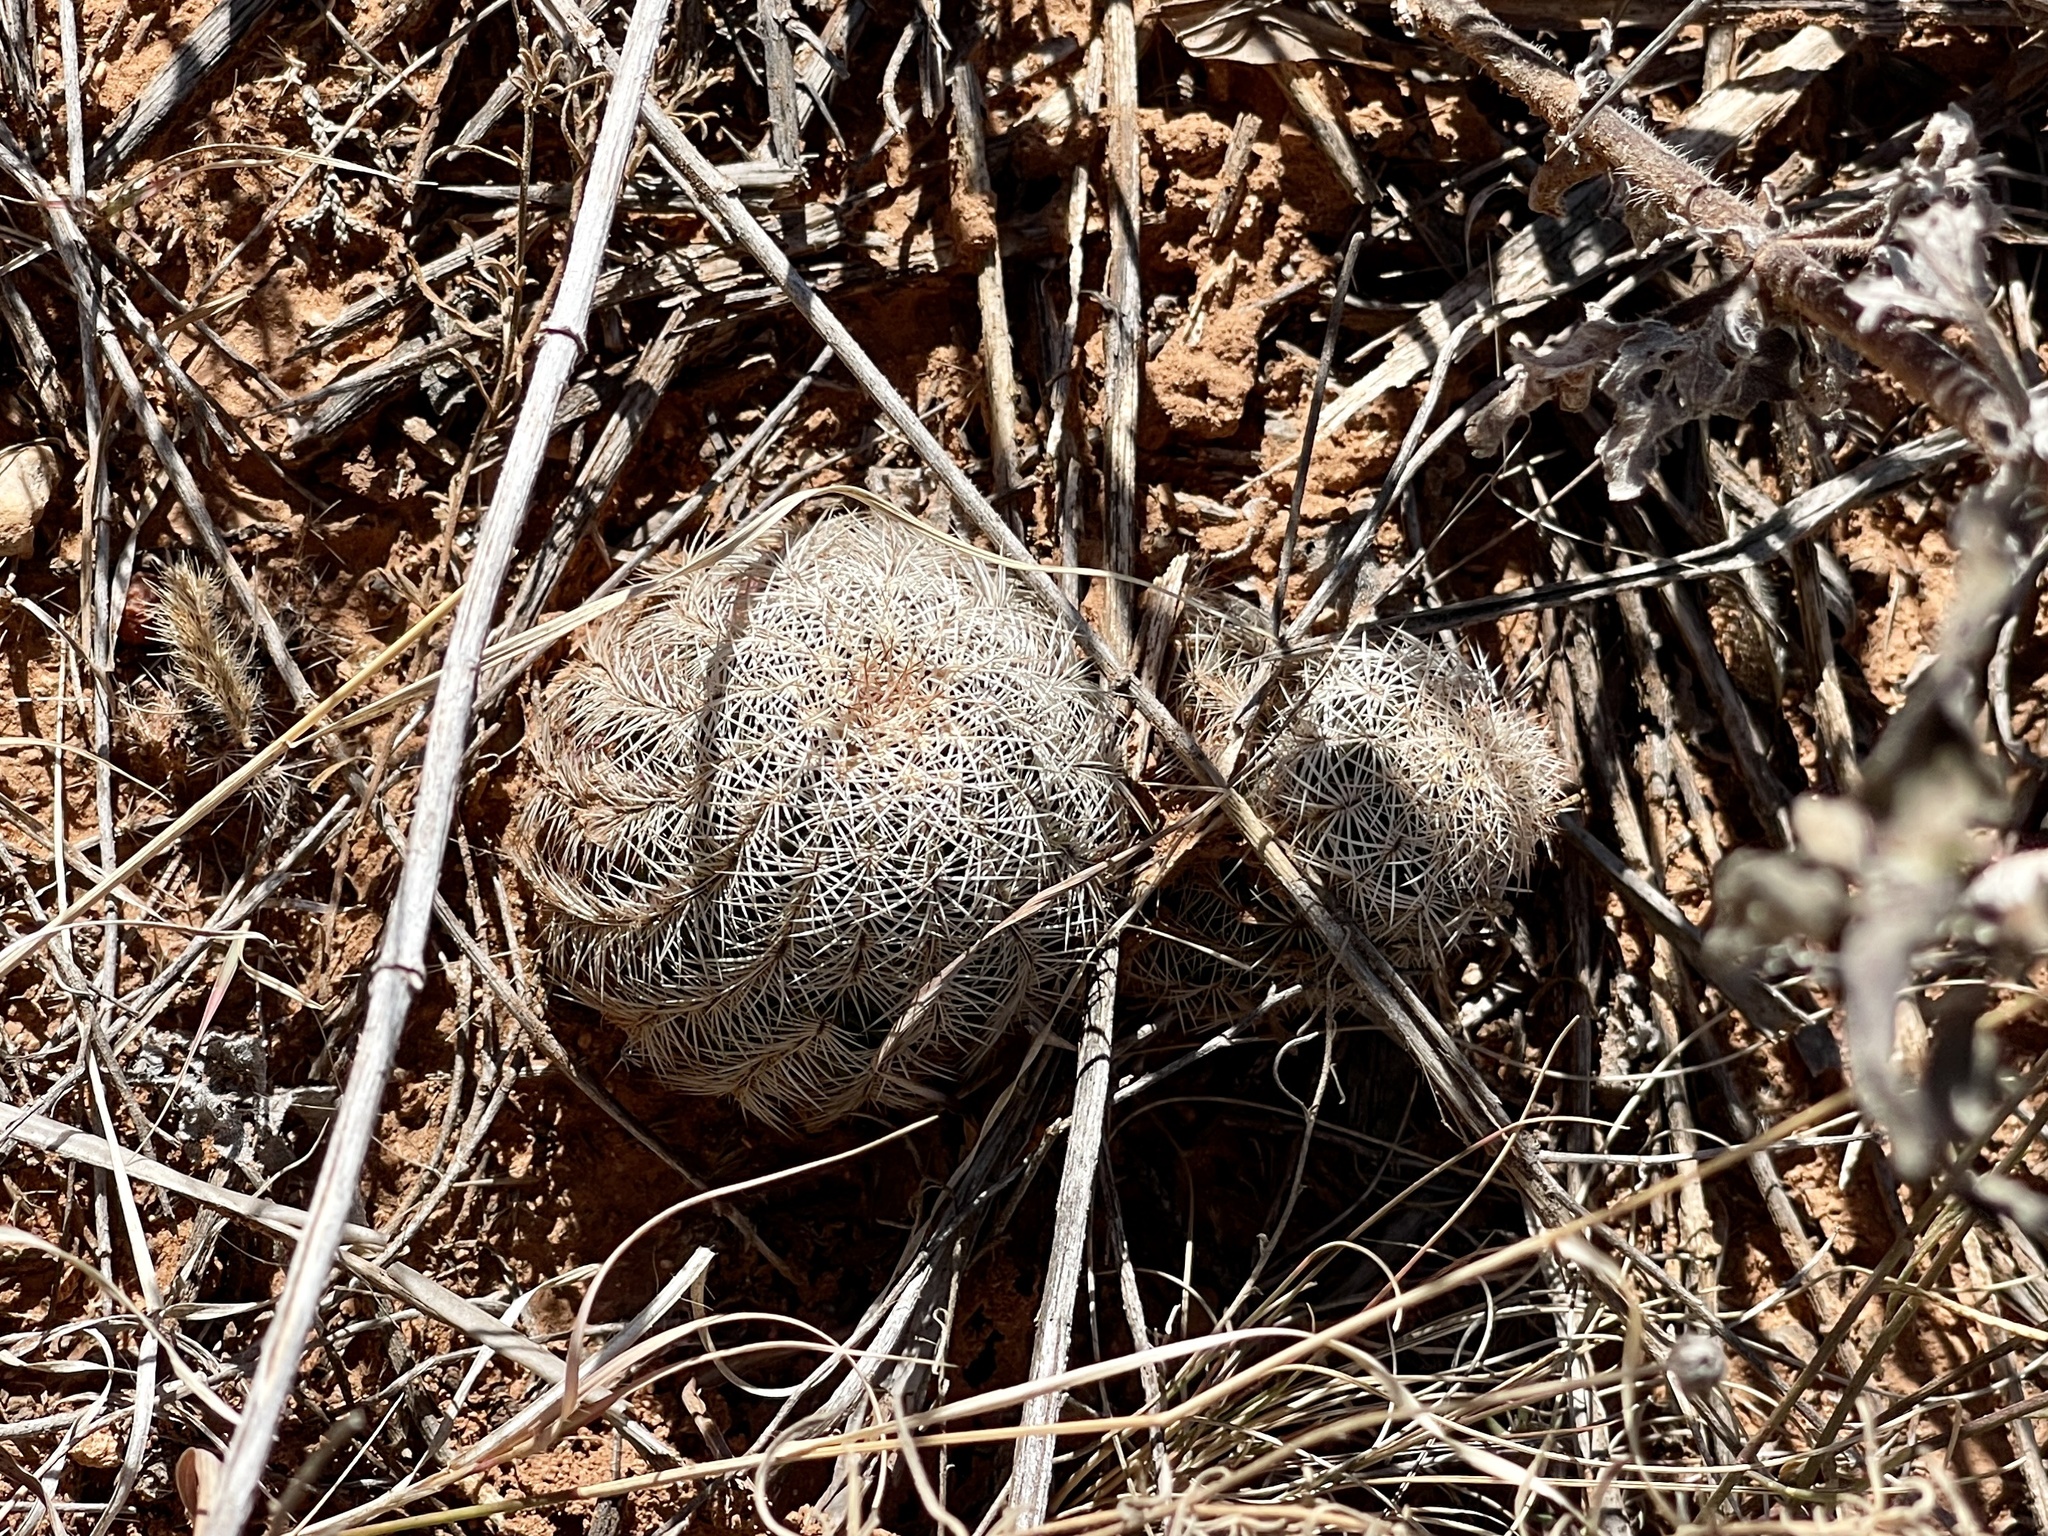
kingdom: Plantae
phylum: Tracheophyta
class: Magnoliopsida
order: Caryophyllales
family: Cactaceae
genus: Echinocereus
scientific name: Echinocereus reichenbachii
